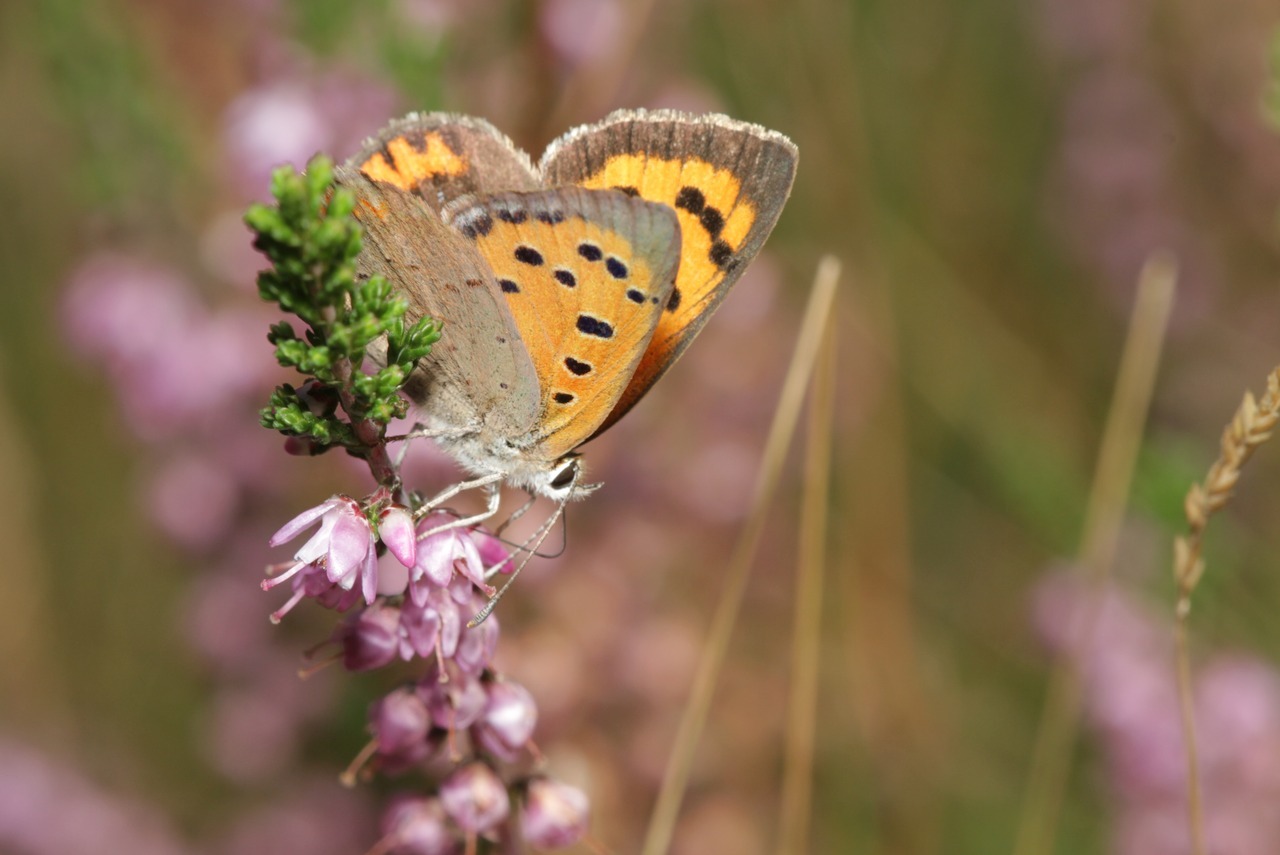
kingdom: Animalia
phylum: Arthropoda
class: Insecta
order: Lepidoptera
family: Lycaenidae
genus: Lycaena
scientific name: Lycaena phlaeas
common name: Small copper
